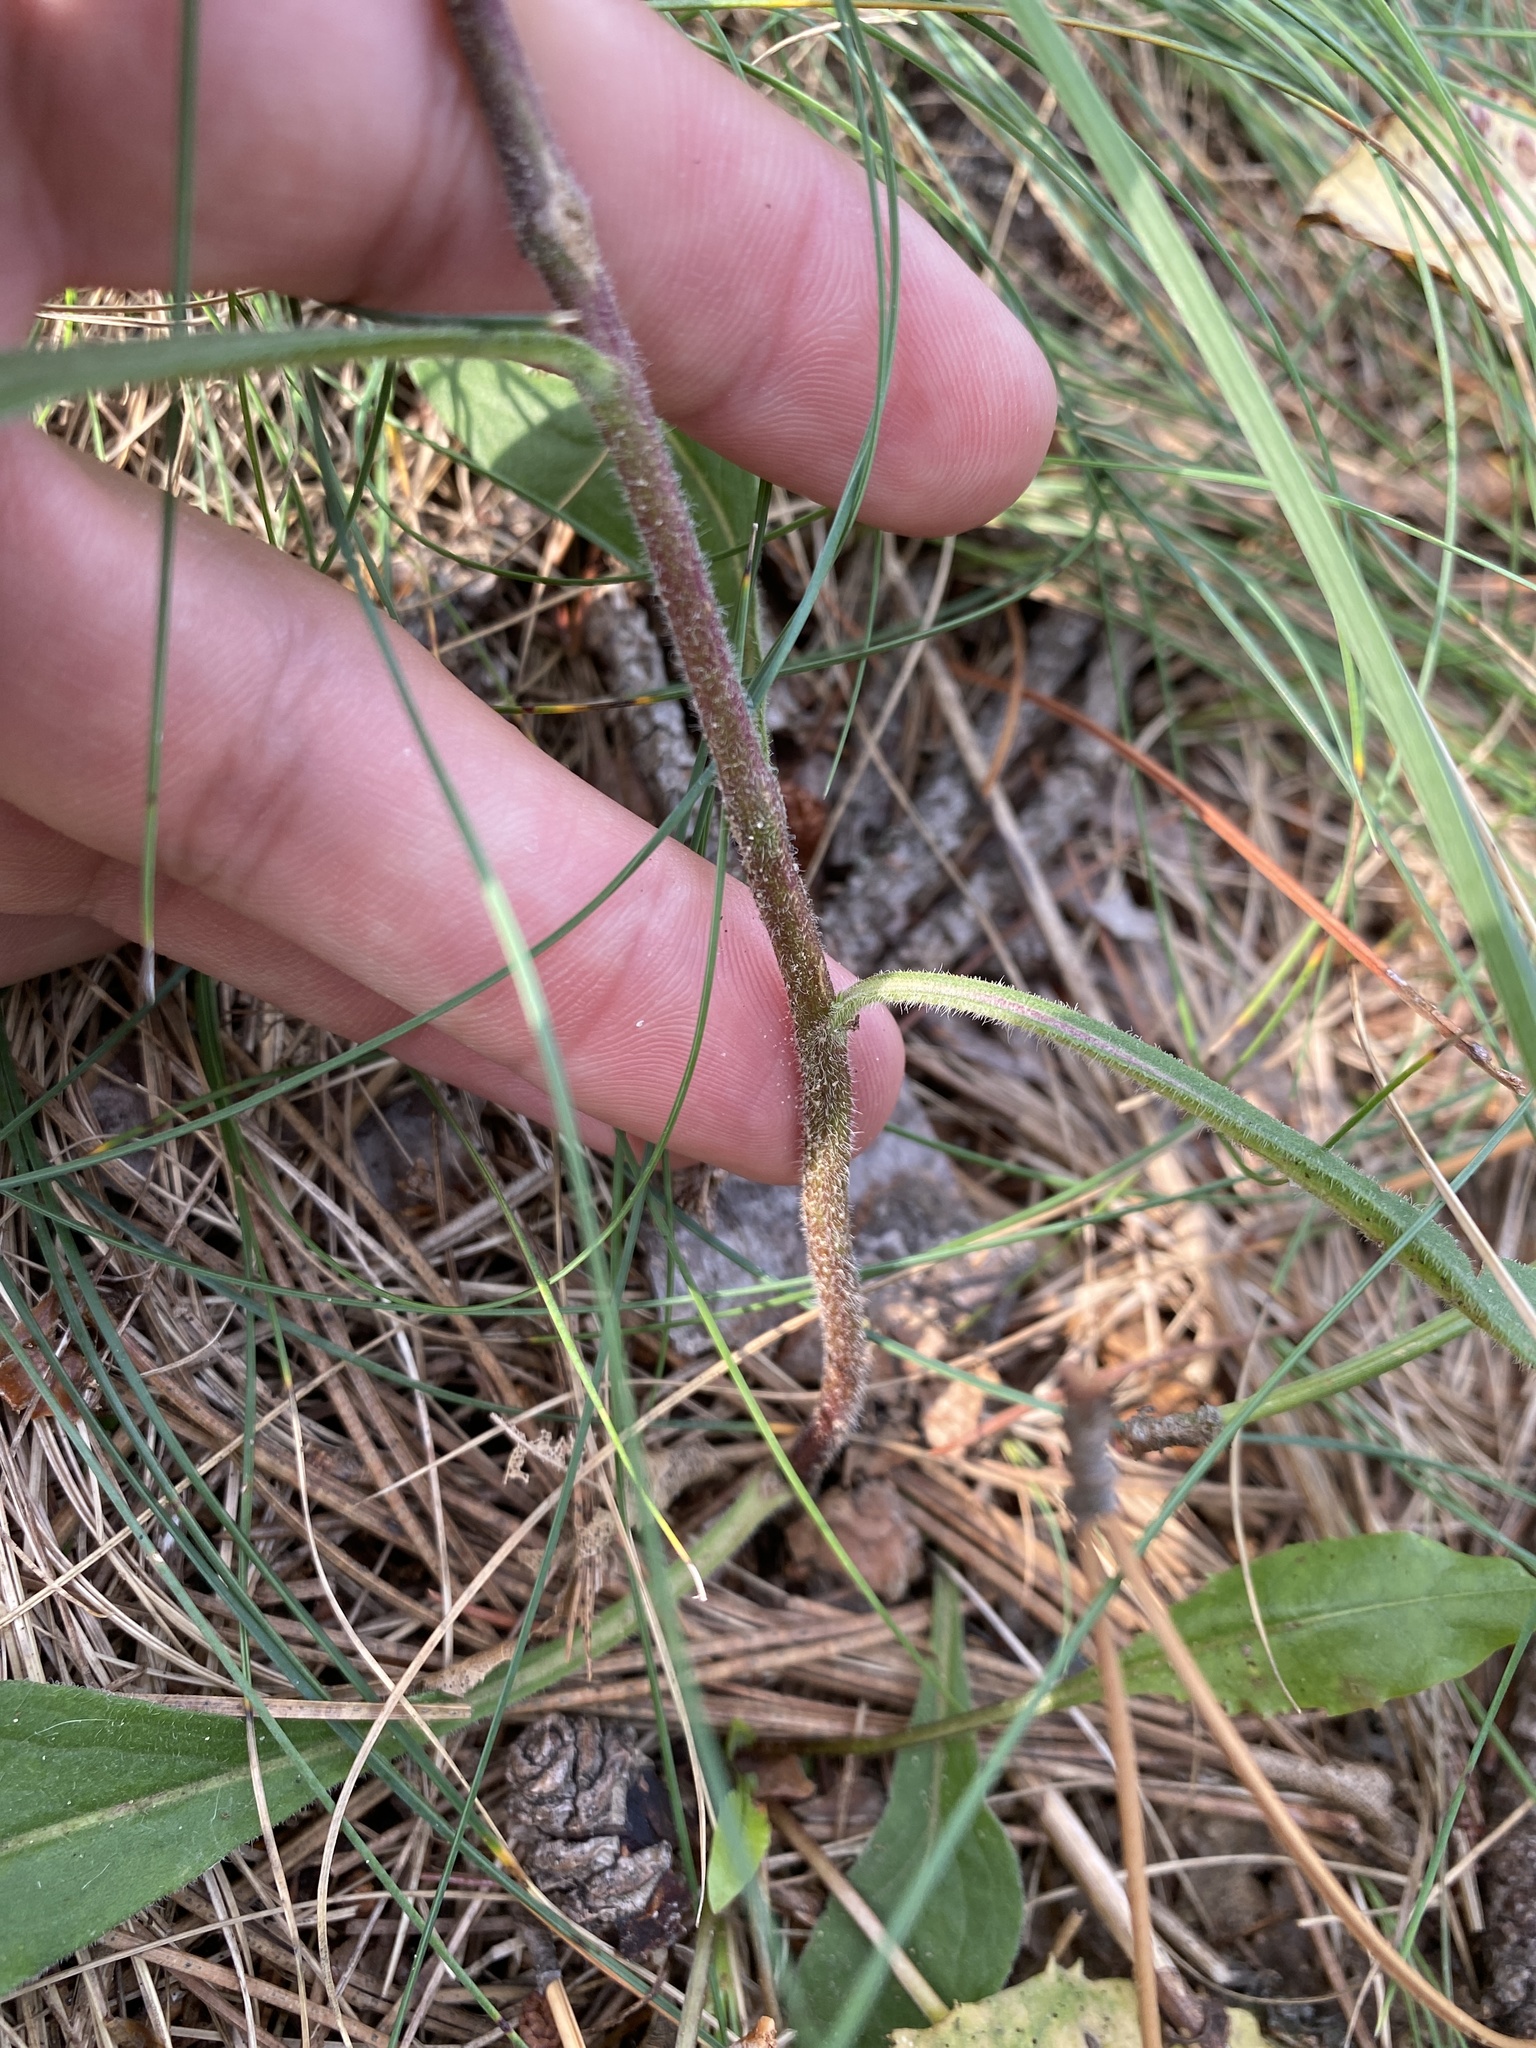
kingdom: Plantae
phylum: Tracheophyta
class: Magnoliopsida
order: Asterales
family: Asteraceae
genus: Solidago
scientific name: Solidago hispida
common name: Hairy goldenrod
